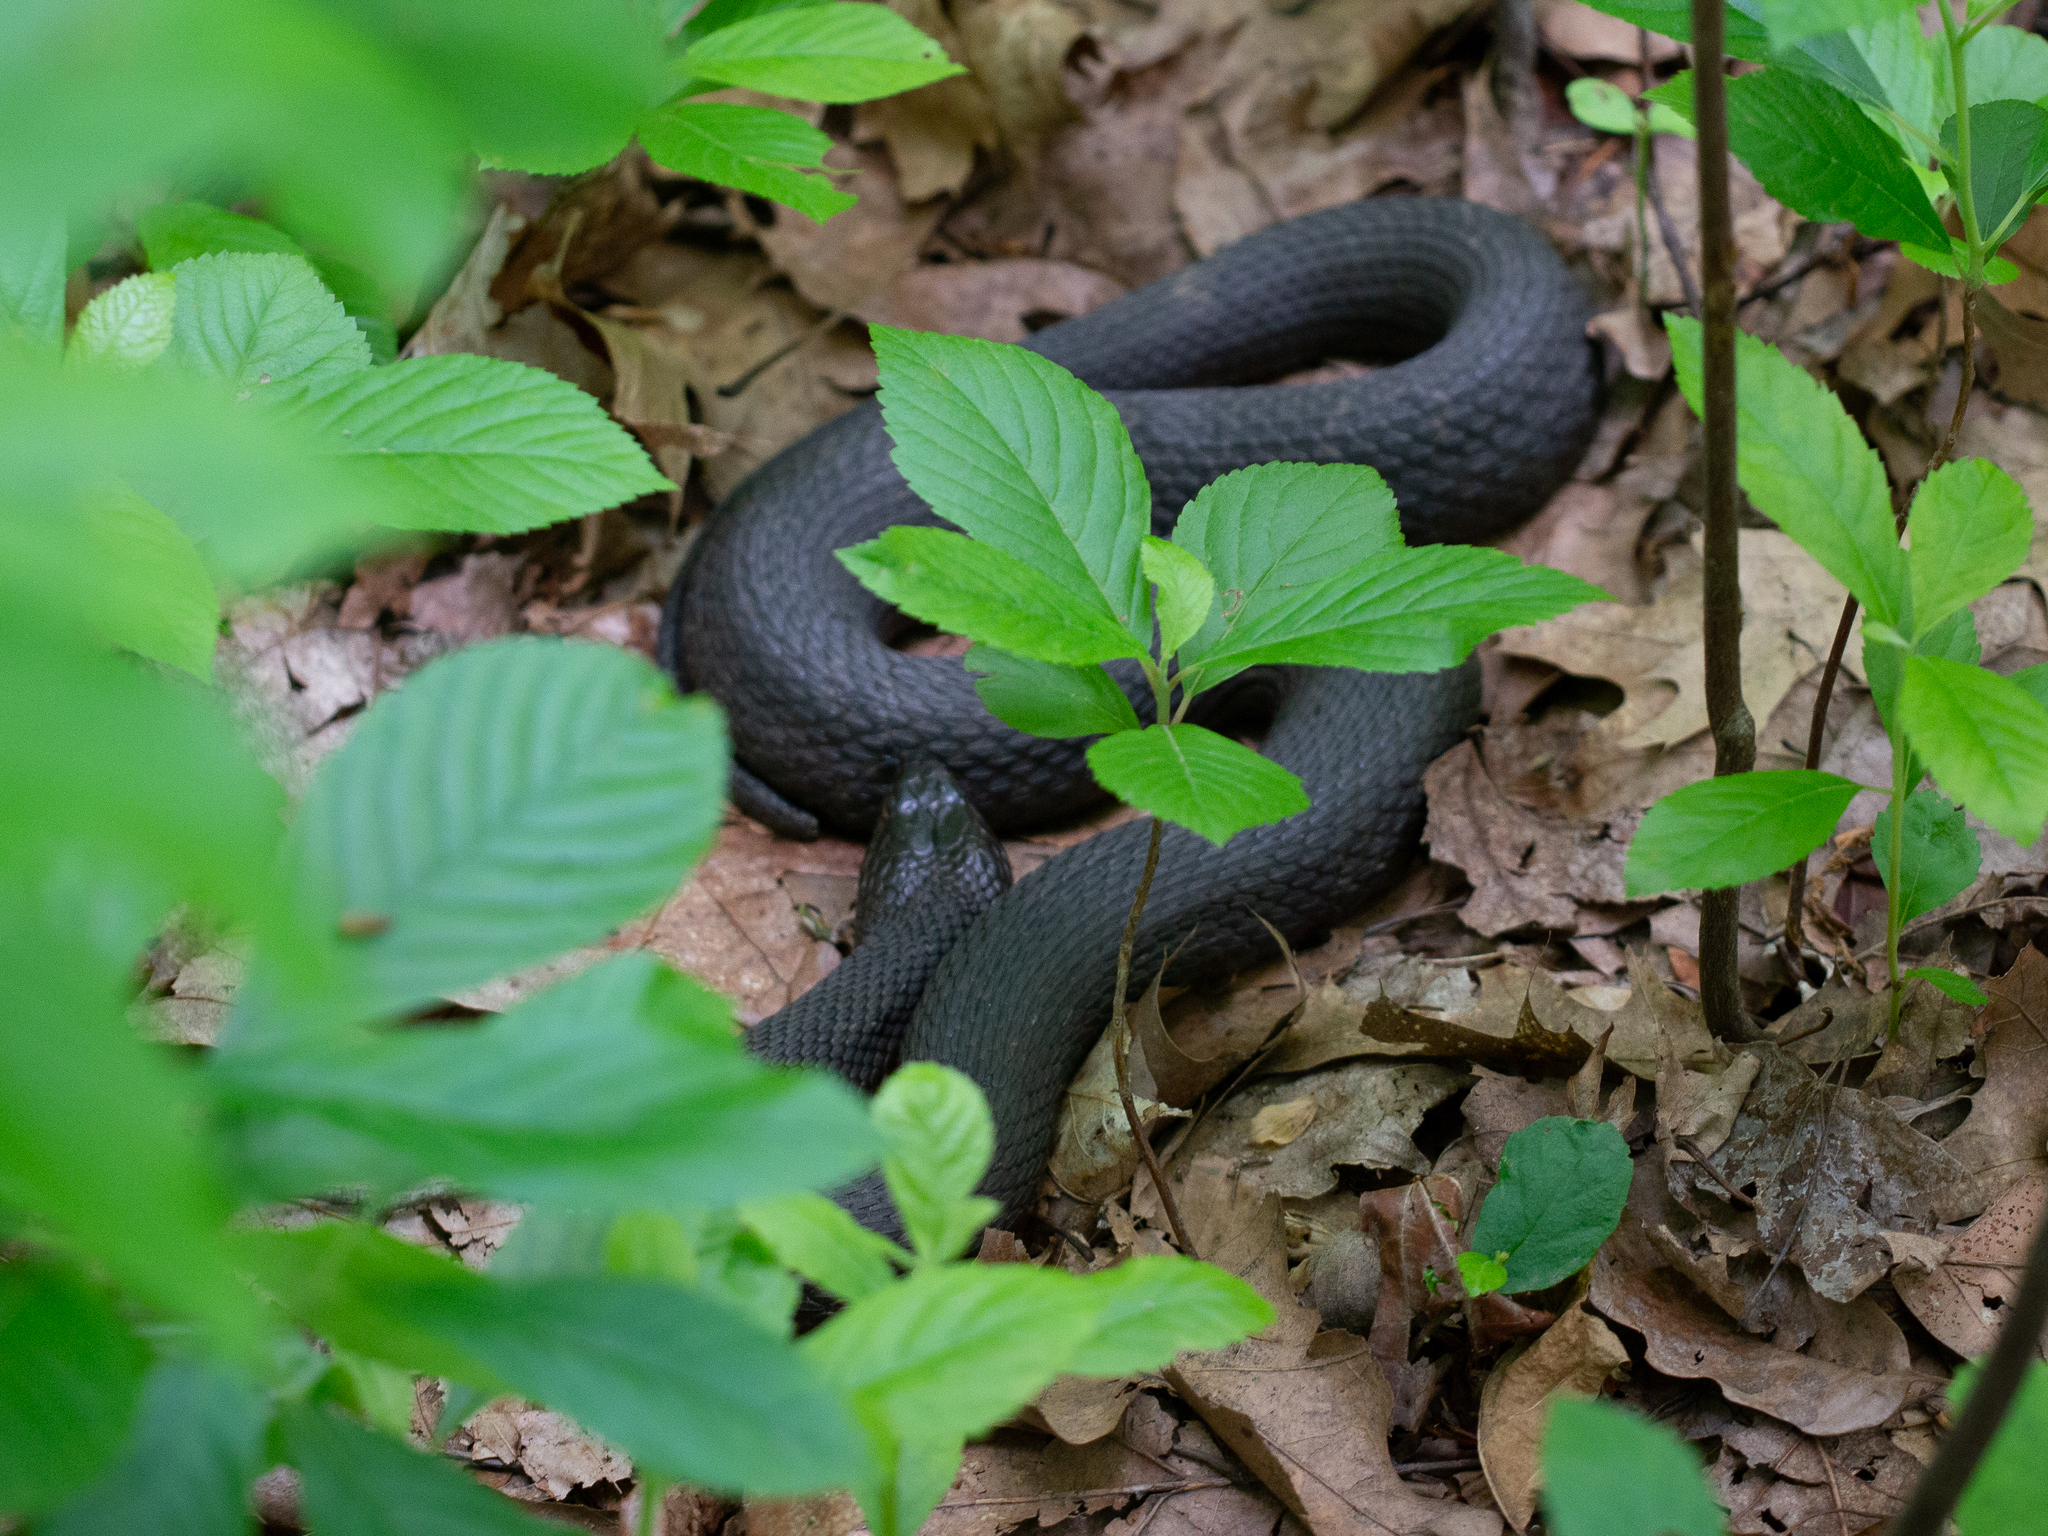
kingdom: Animalia
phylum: Chordata
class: Squamata
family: Colubridae
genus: Nerodia
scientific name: Nerodia sipedon
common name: Northern water snake
